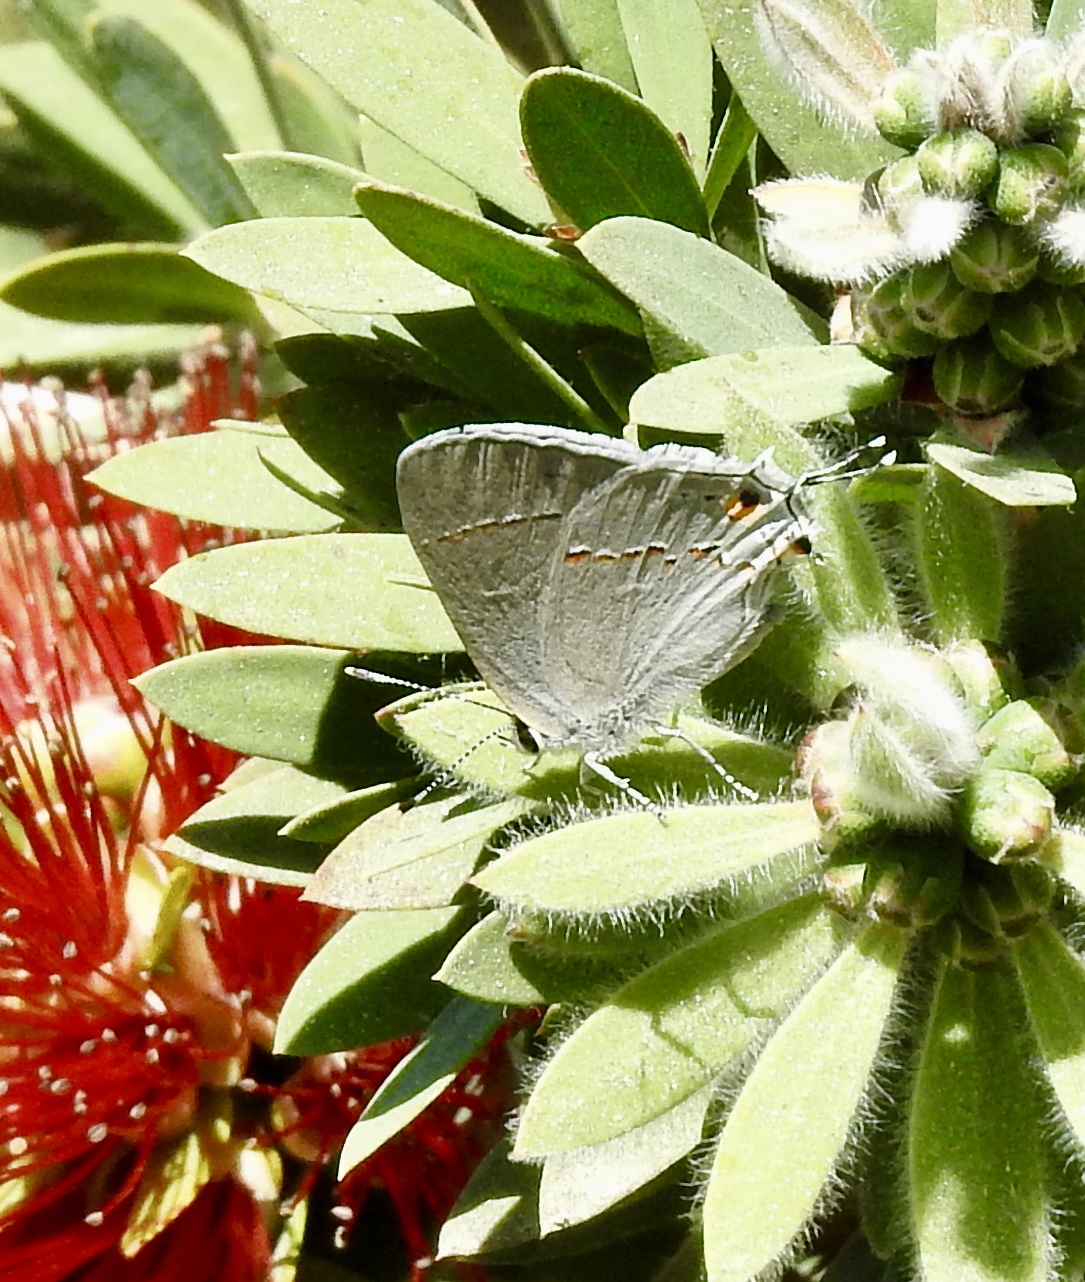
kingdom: Animalia
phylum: Arthropoda
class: Insecta
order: Lepidoptera
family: Lycaenidae
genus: Strymon
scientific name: Strymon melinus
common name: Gray hairstreak
